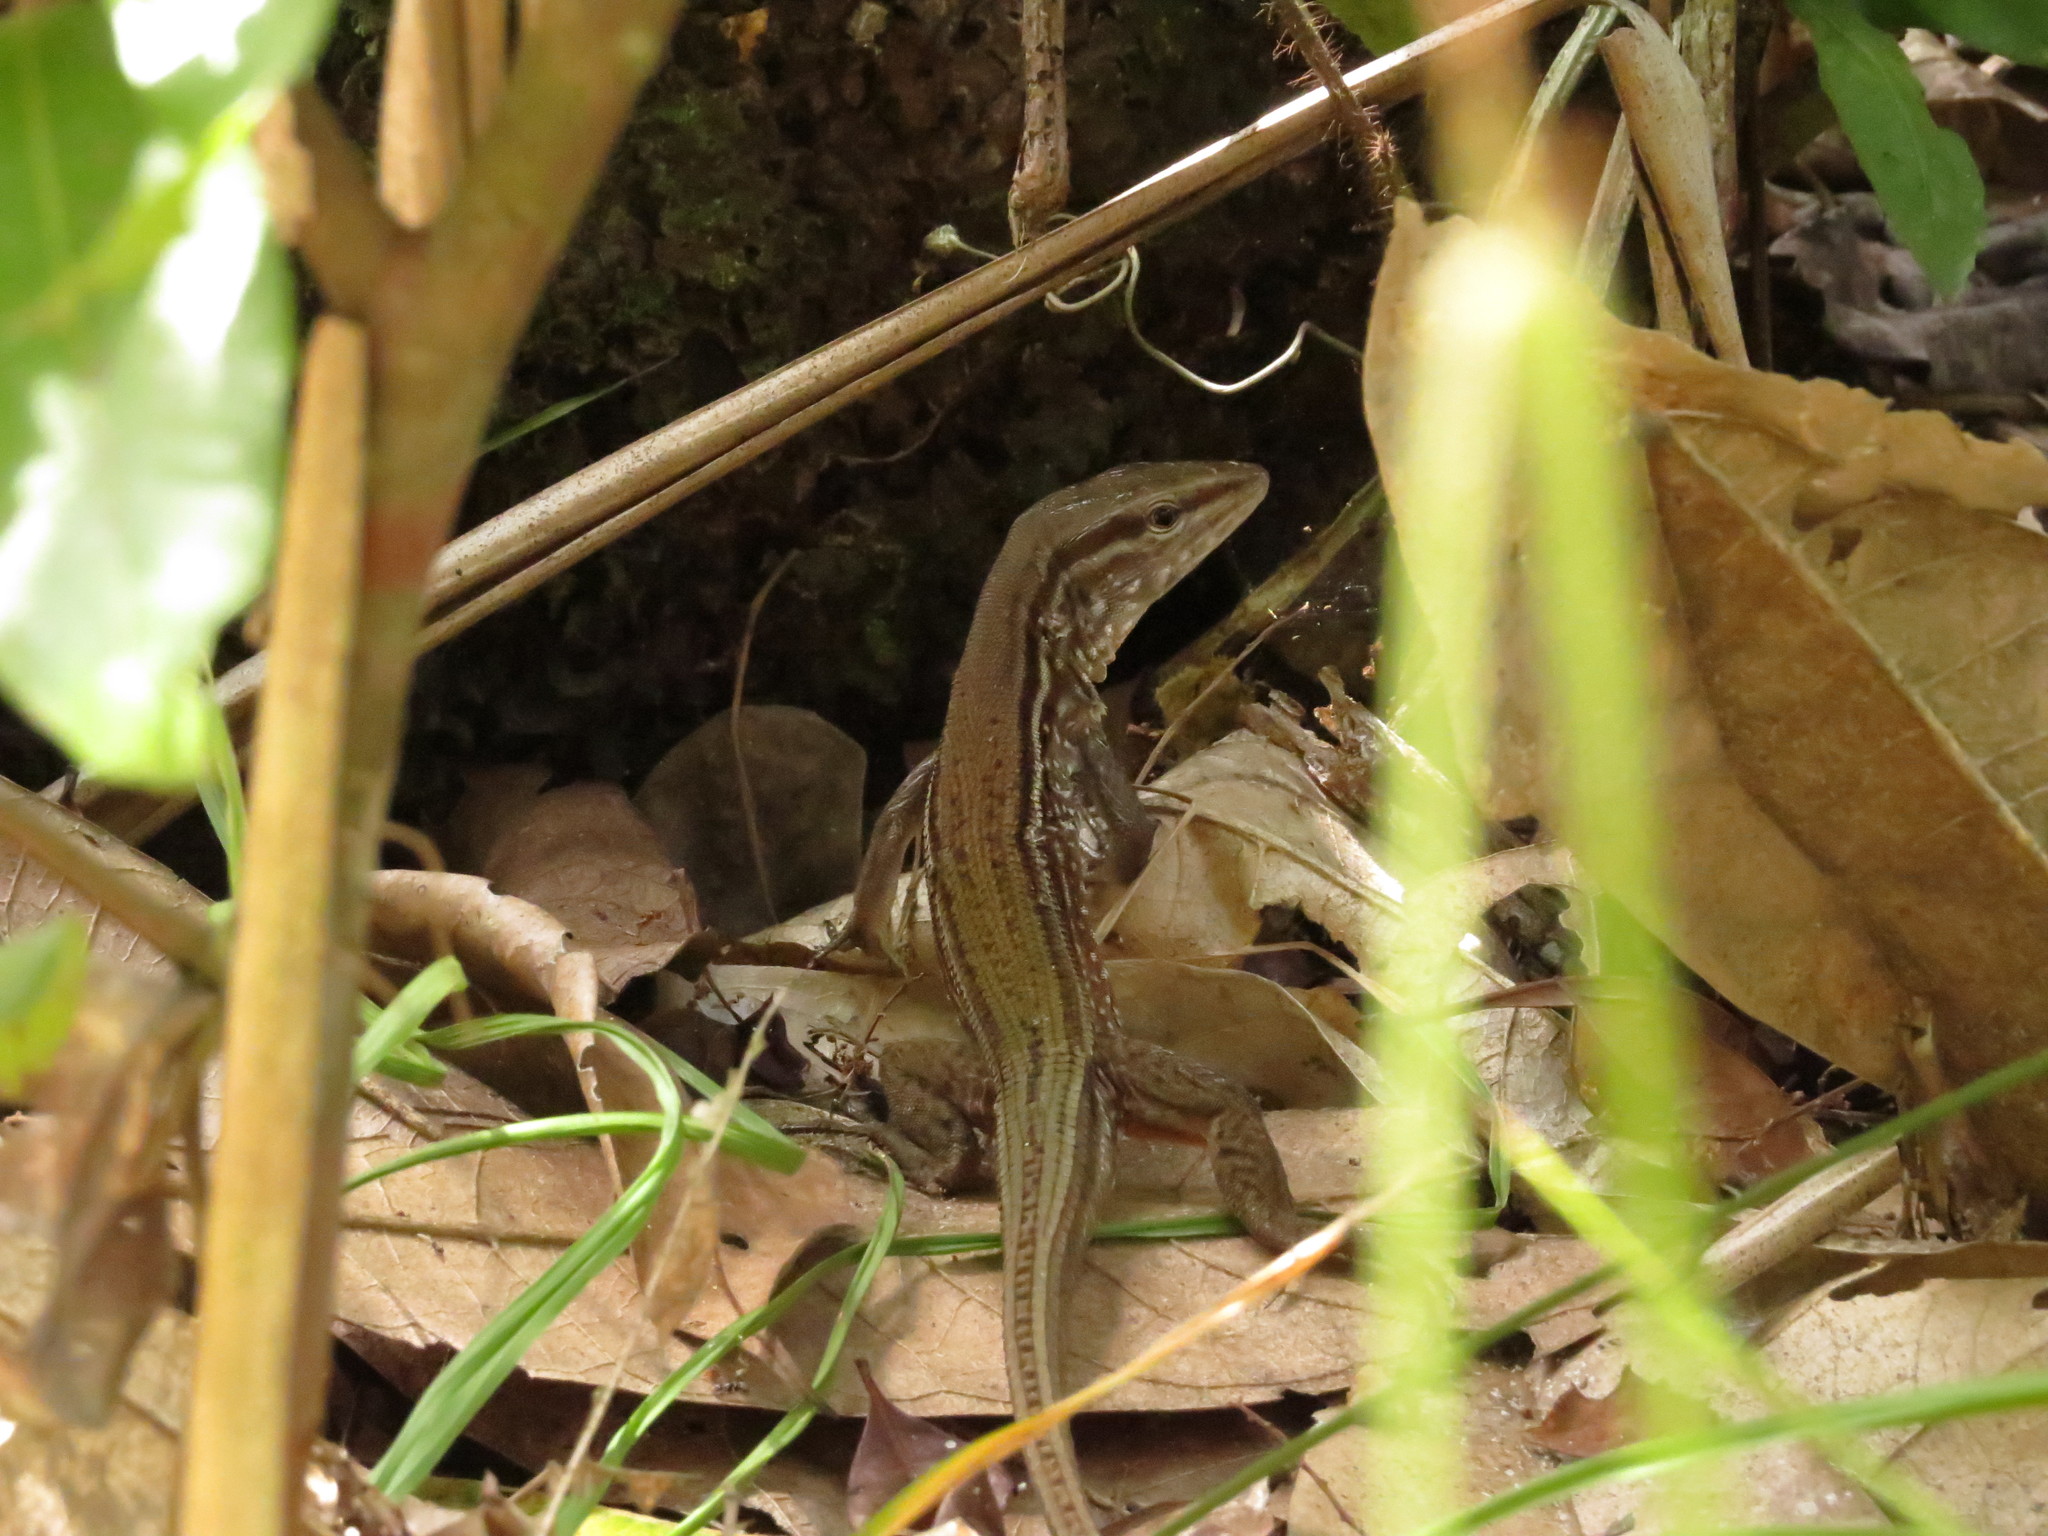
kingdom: Animalia
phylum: Chordata
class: Squamata
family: Teiidae
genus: Kentropyx
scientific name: Kentropyx striata
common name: Striped whiptail
